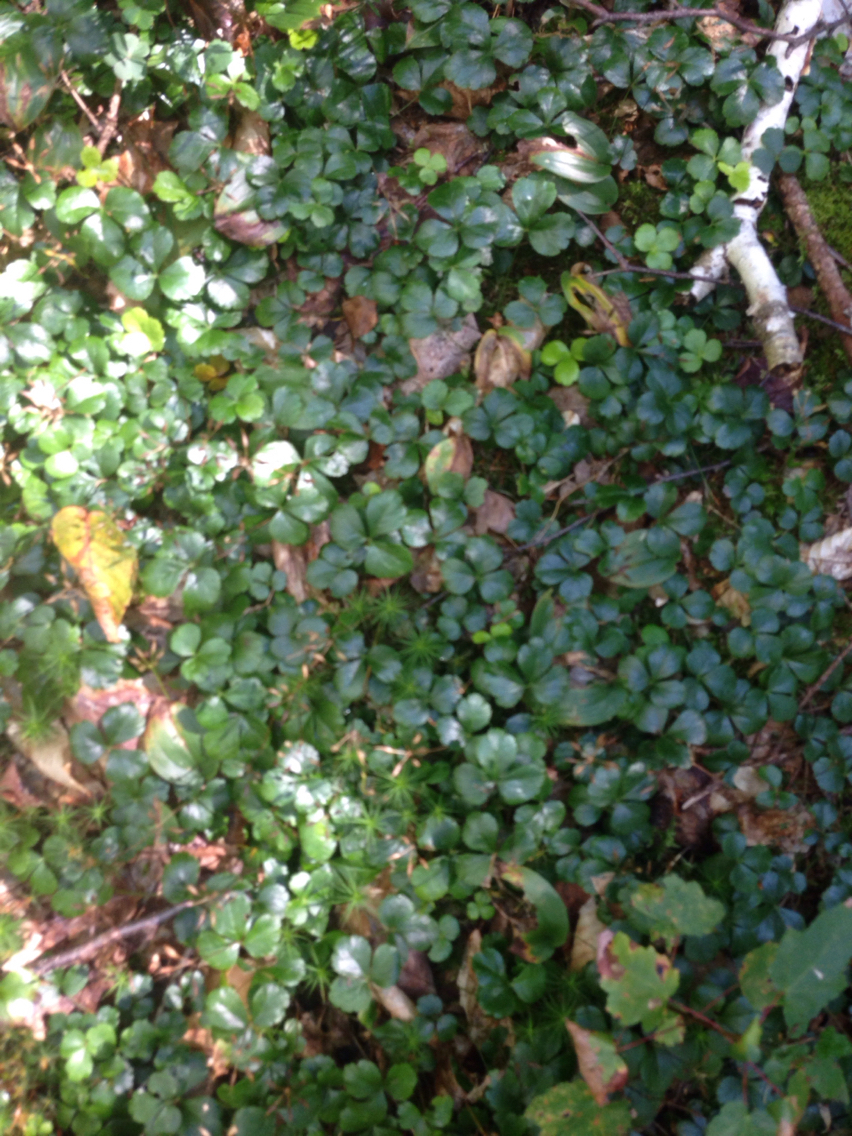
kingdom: Plantae
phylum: Tracheophyta
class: Magnoliopsida
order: Ranunculales
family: Ranunculaceae
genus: Coptis
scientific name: Coptis trifolia
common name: Canker-root
